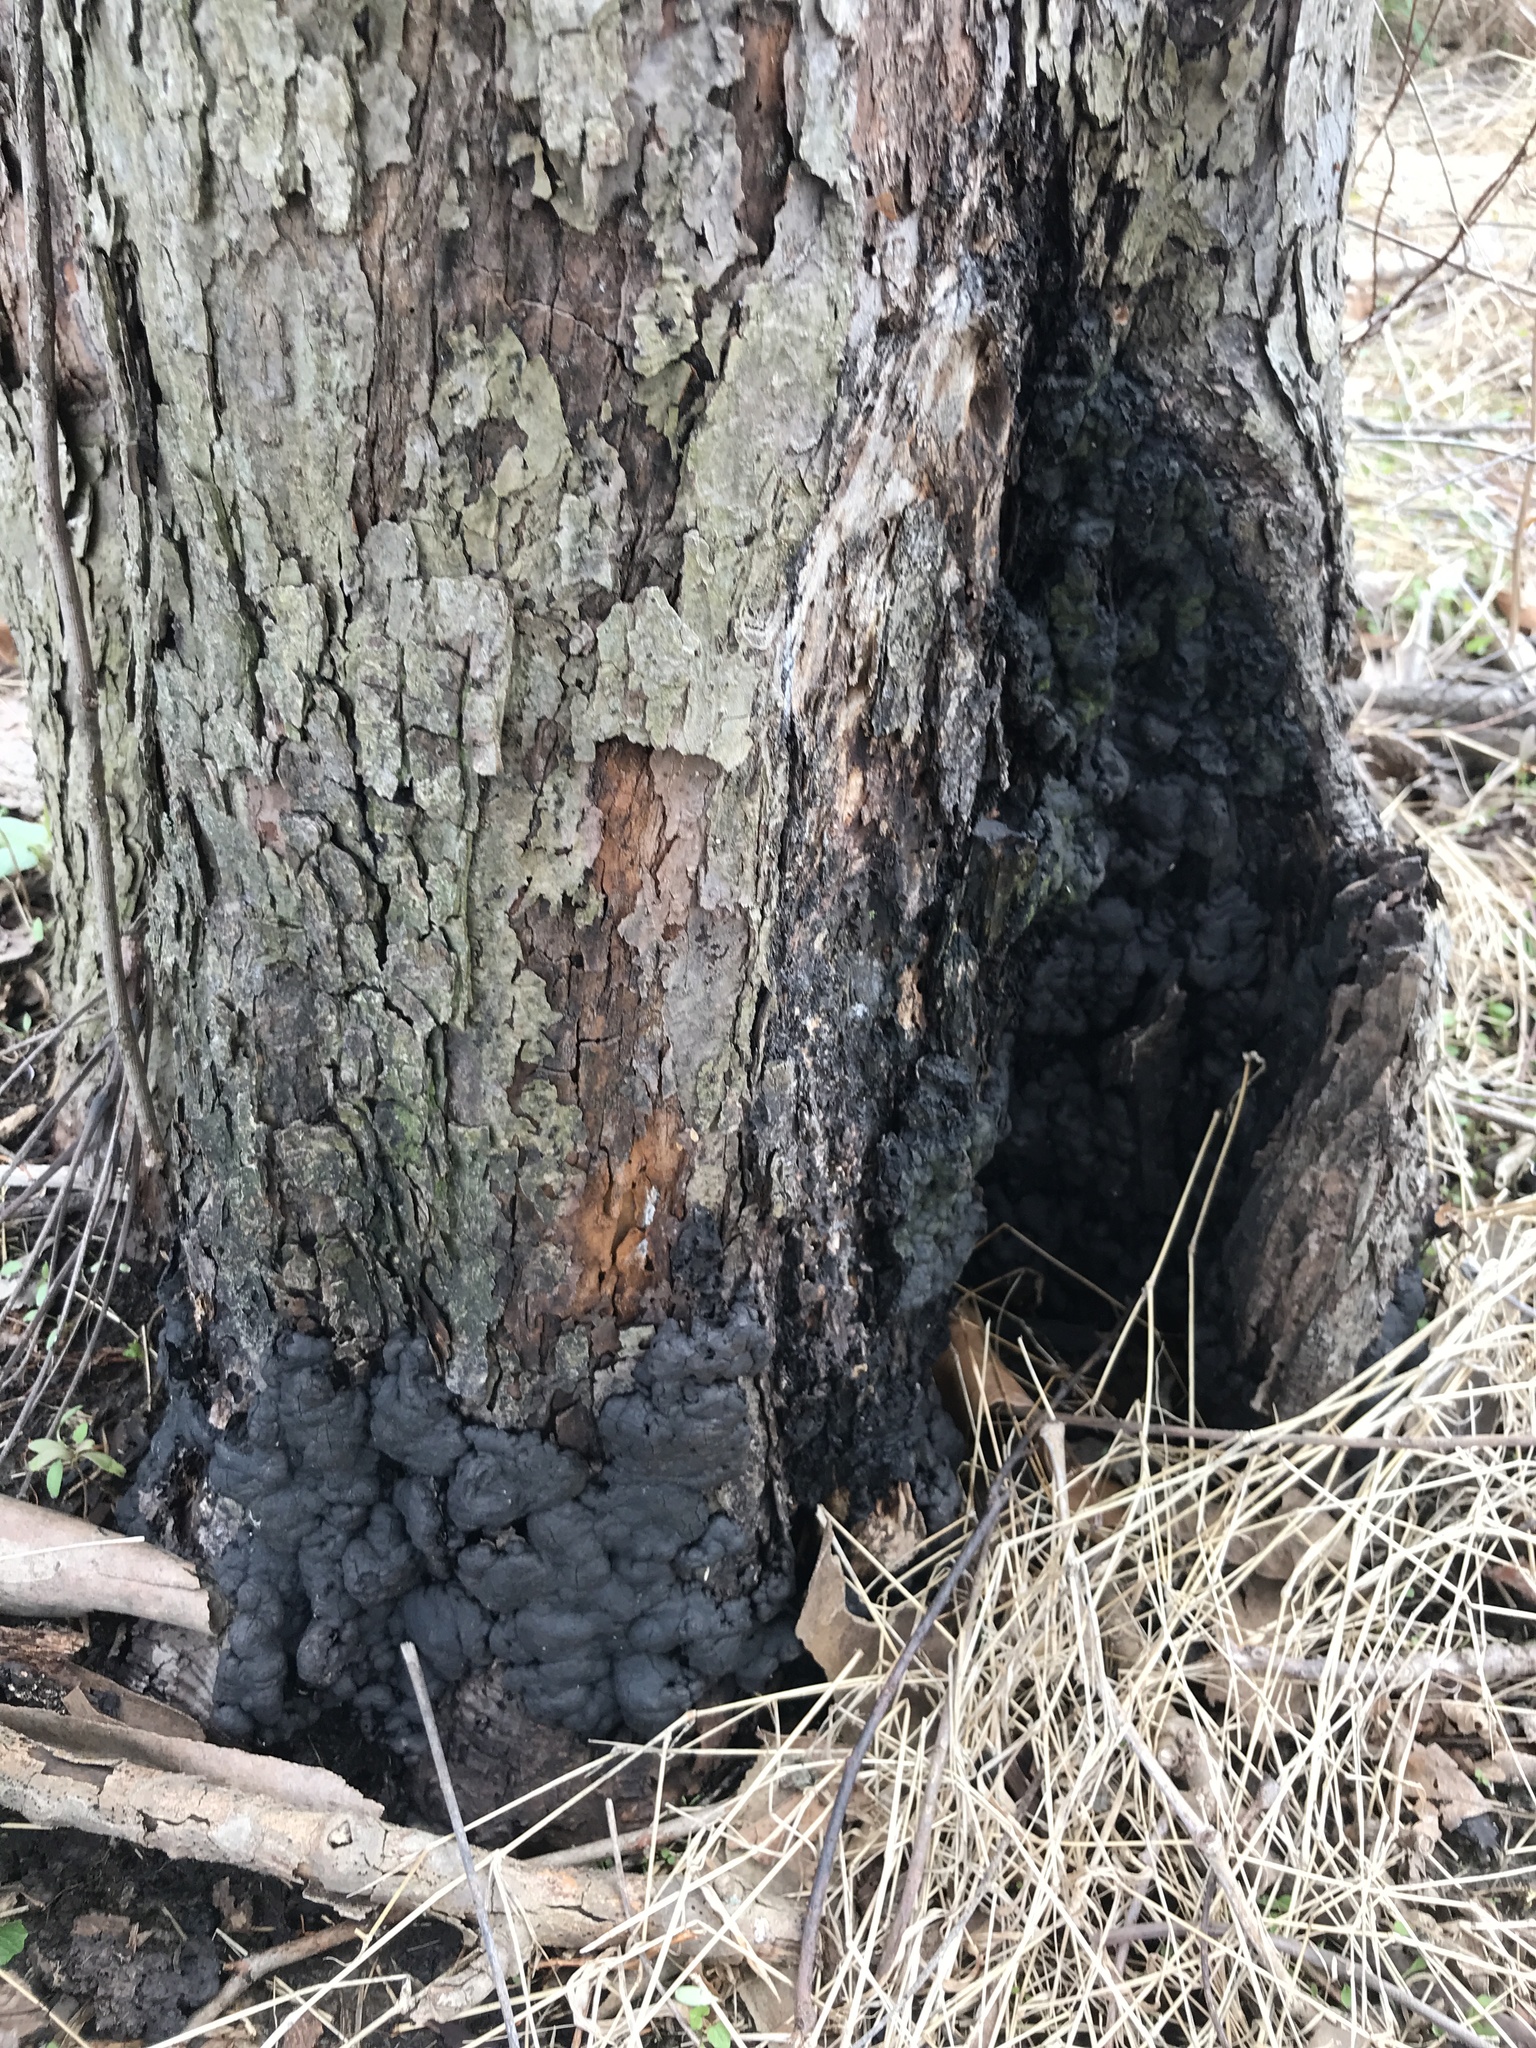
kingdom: Fungi
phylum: Ascomycota
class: Sordariomycetes
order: Xylariales
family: Xylariaceae
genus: Kretzschmaria
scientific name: Kretzschmaria deusta
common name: Brittle cinder
